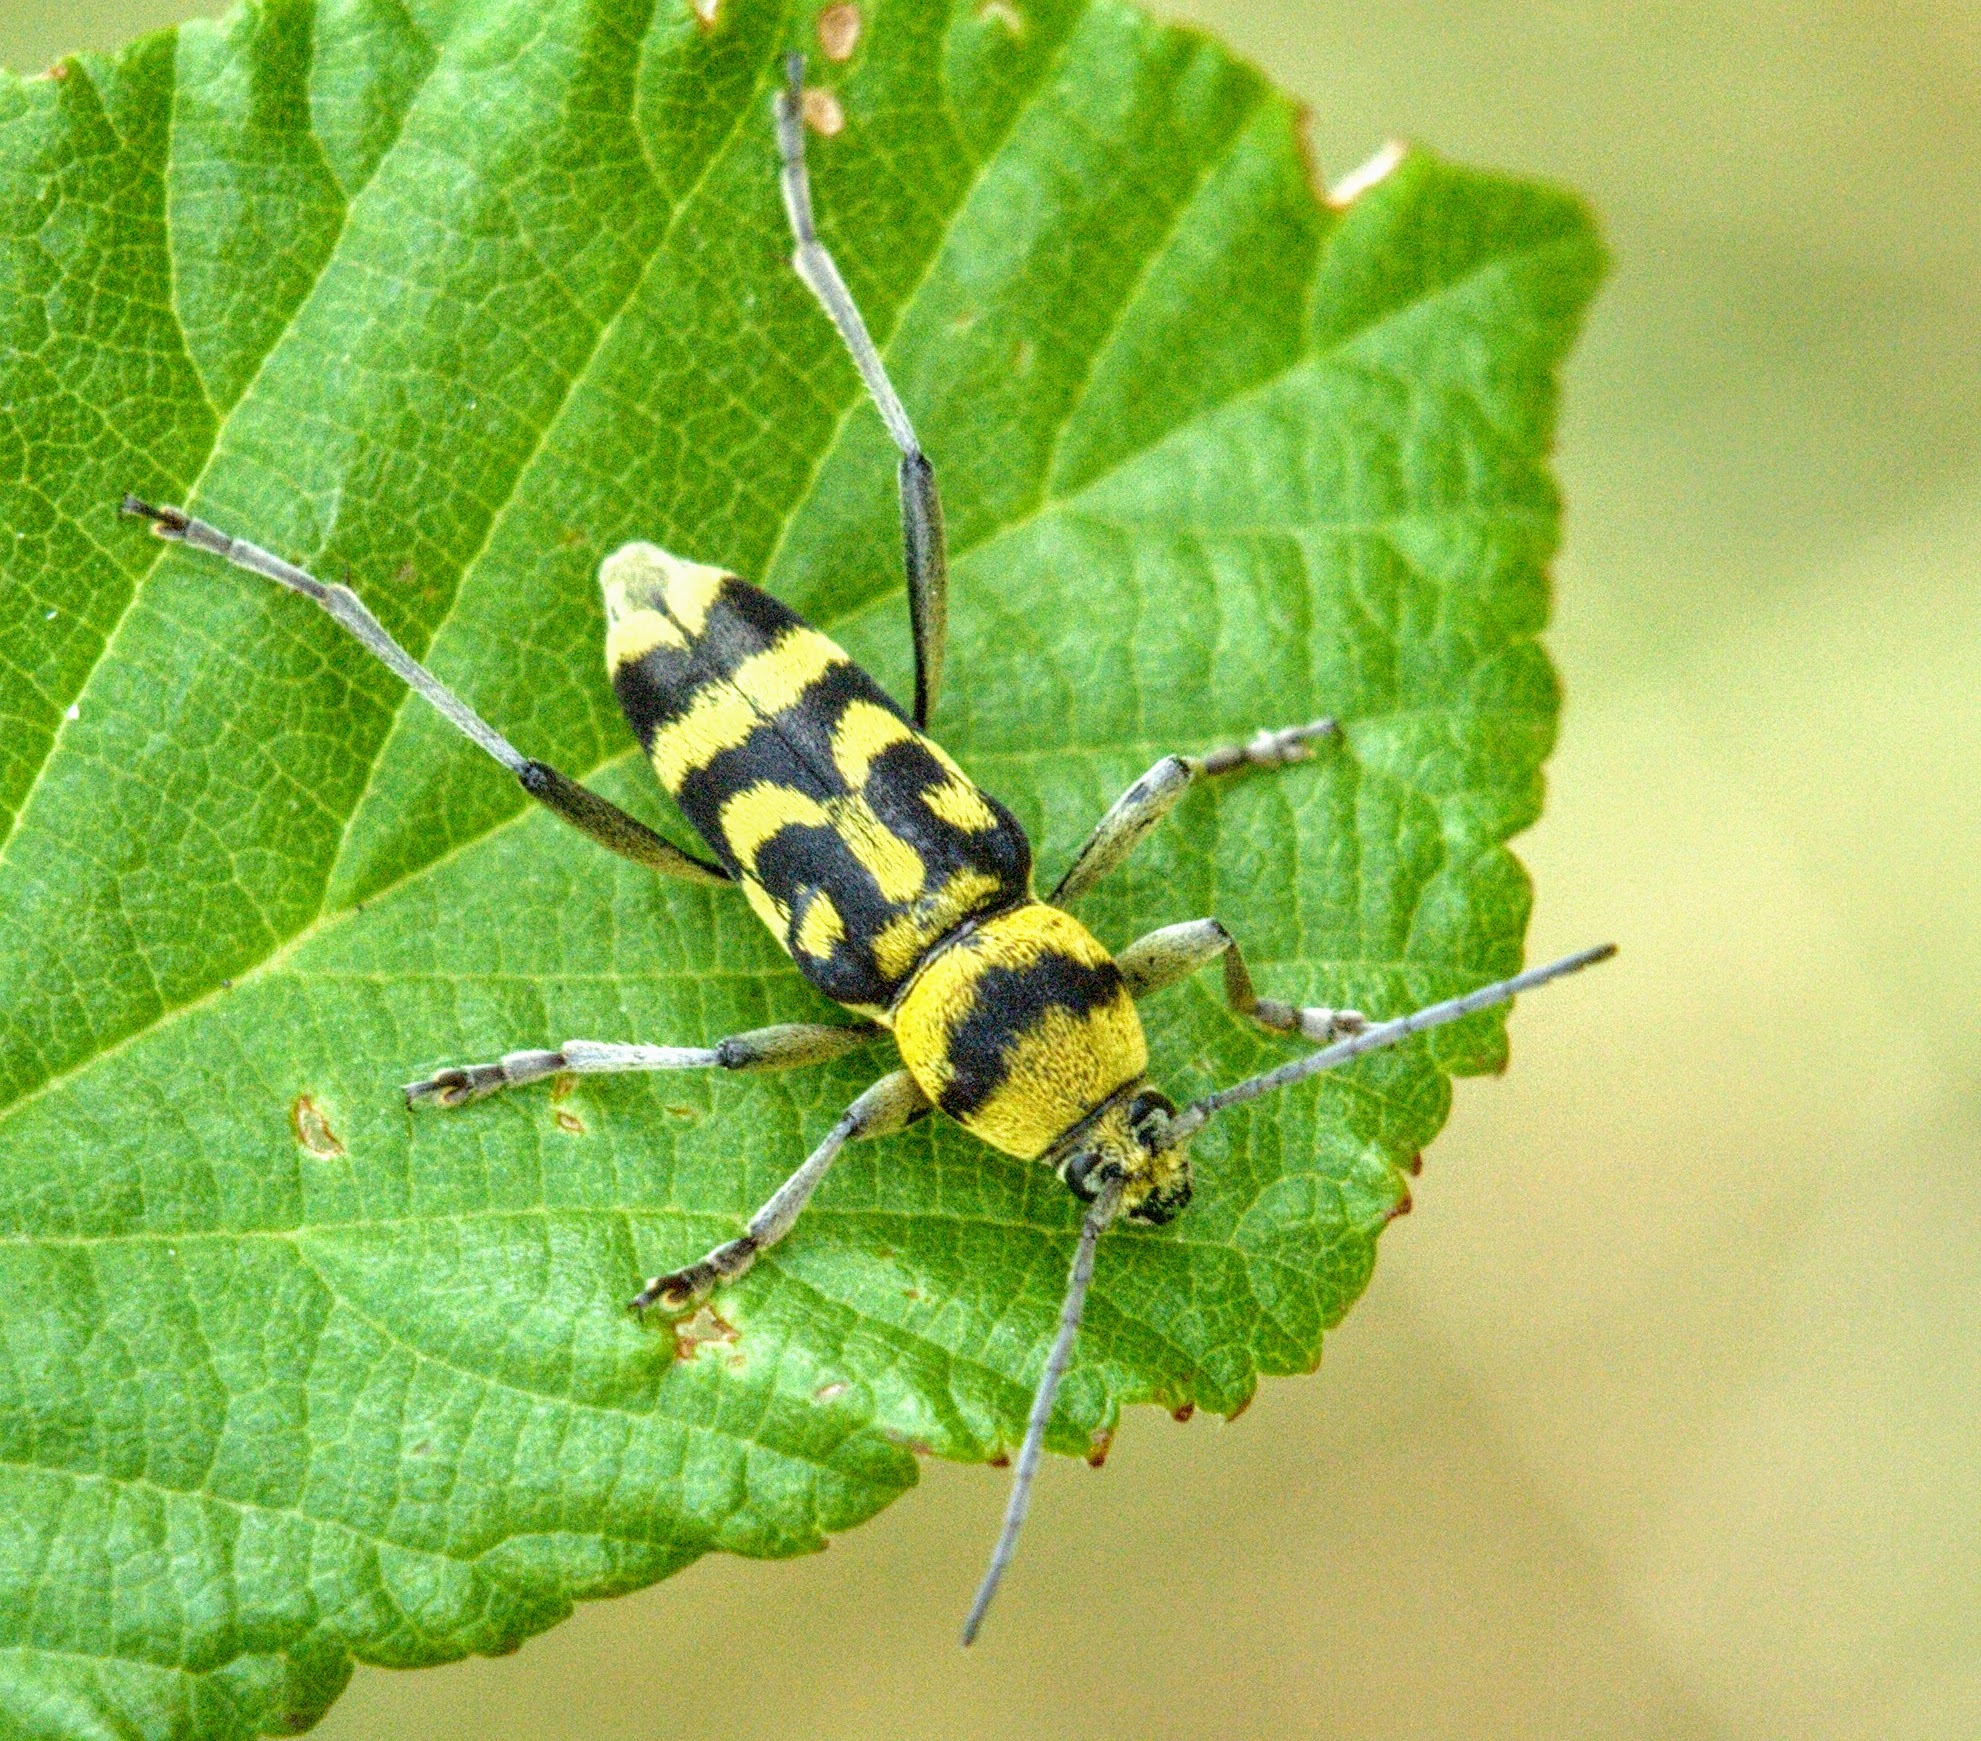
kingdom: Animalia
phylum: Arthropoda
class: Insecta
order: Coleoptera
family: Cerambycidae
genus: Chlorophorus
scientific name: Chlorophorus varius
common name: Grape wood borer
